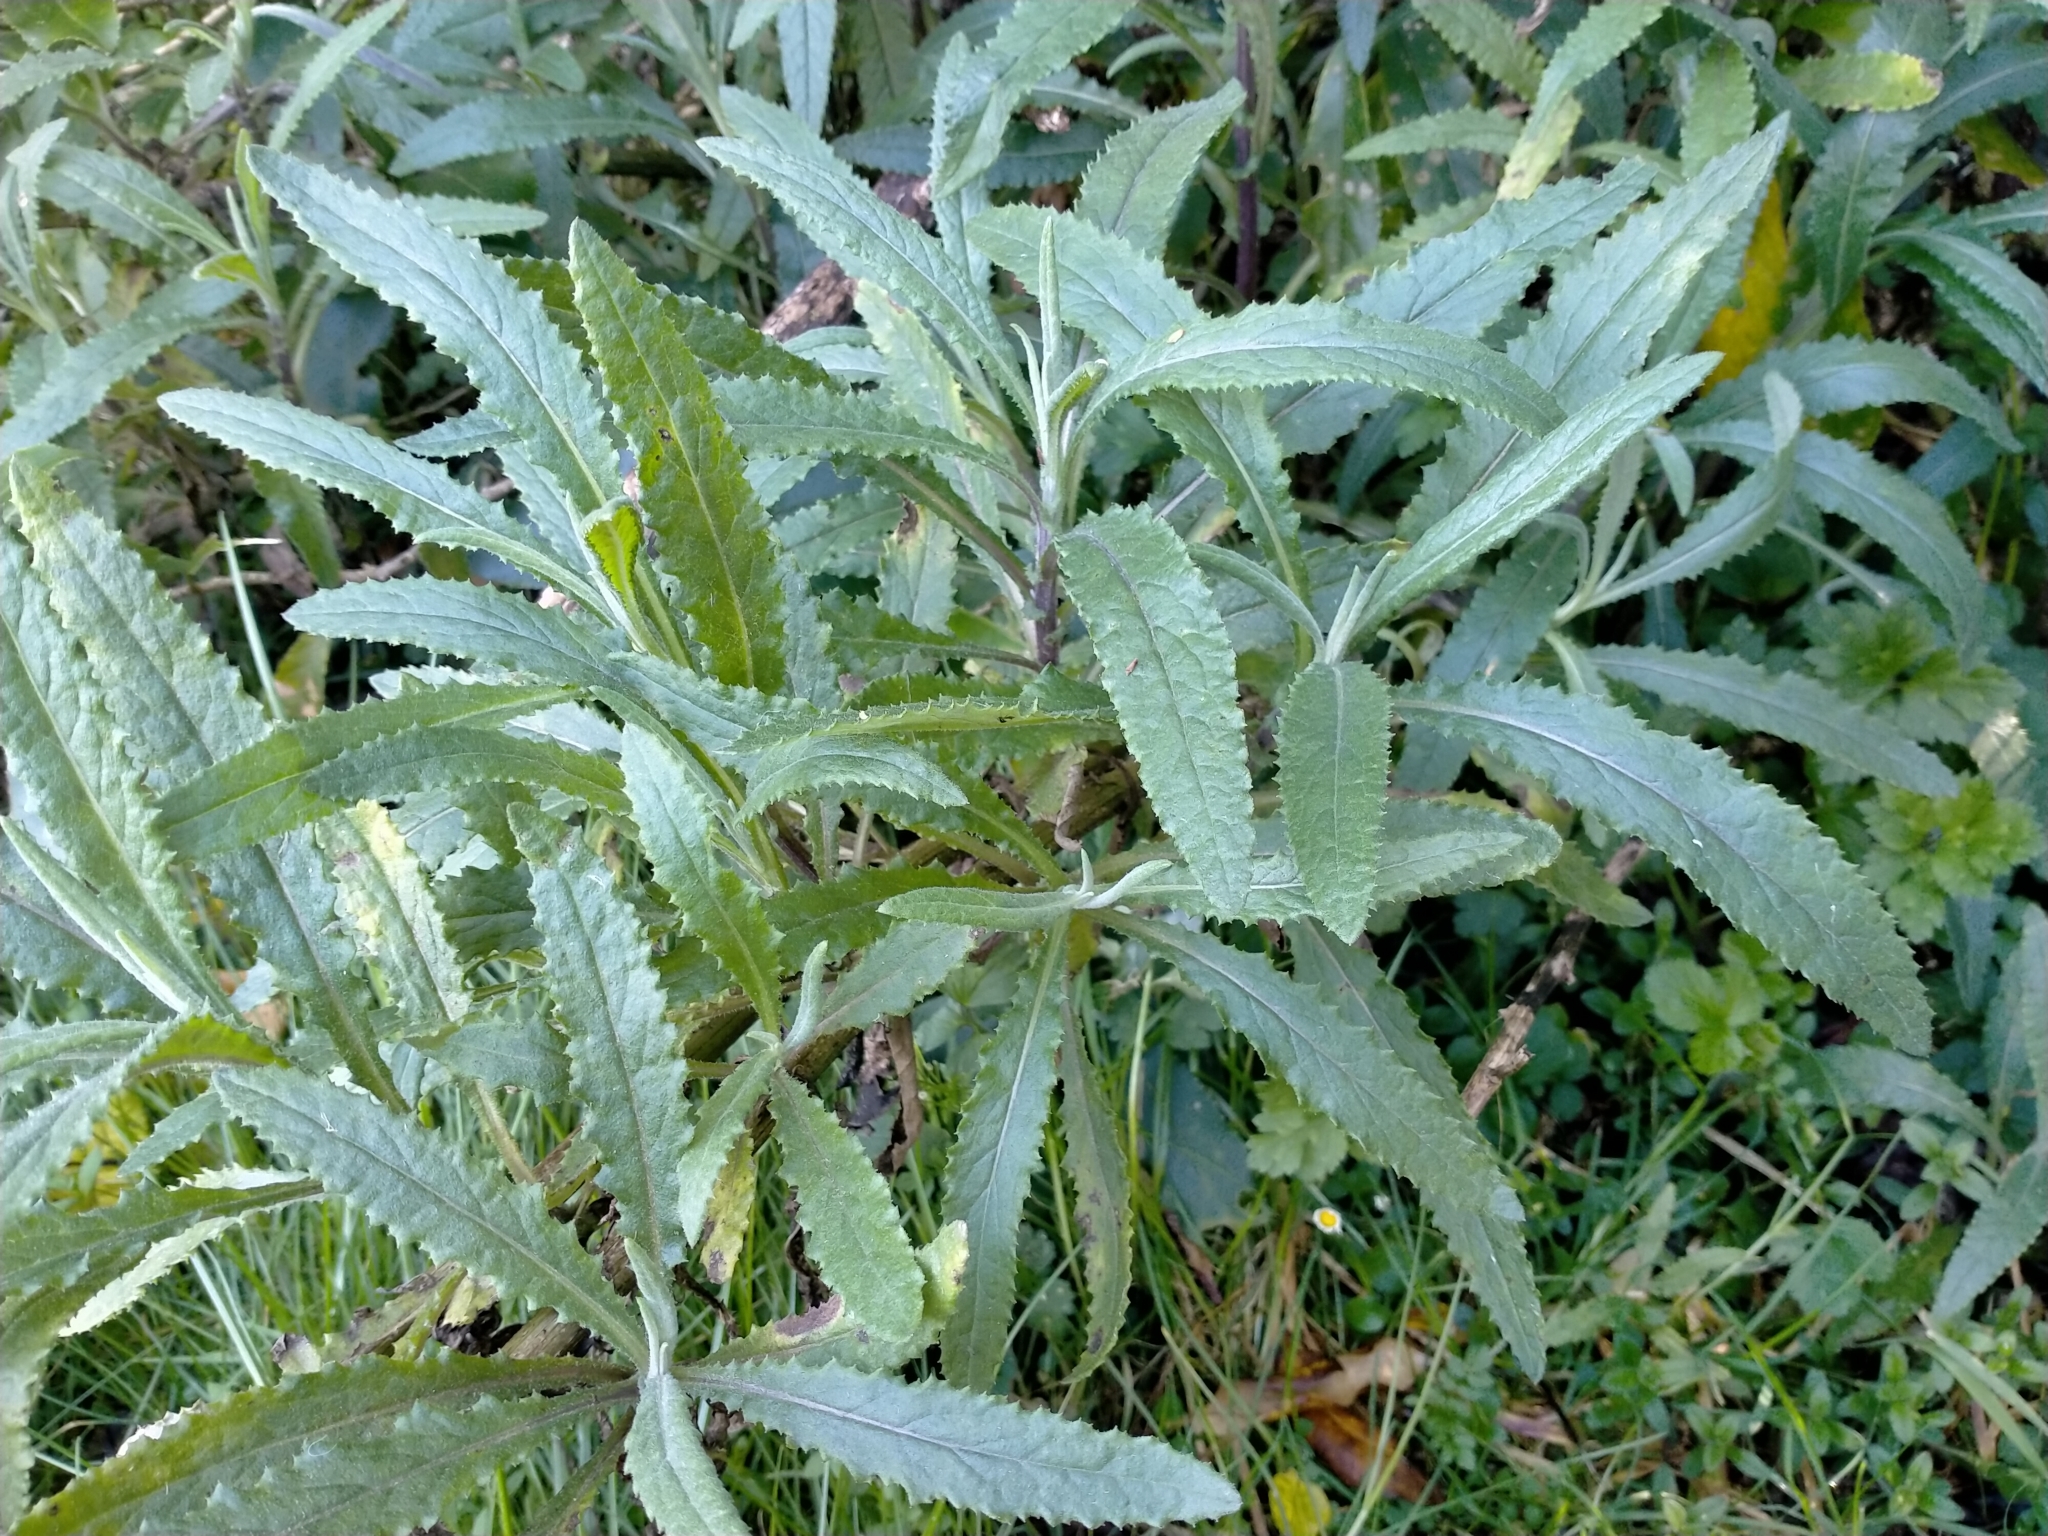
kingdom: Plantae
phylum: Tracheophyta
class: Magnoliopsida
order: Asterales
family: Asteraceae
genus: Senecio
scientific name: Senecio minimus
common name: Toothed fireweed
